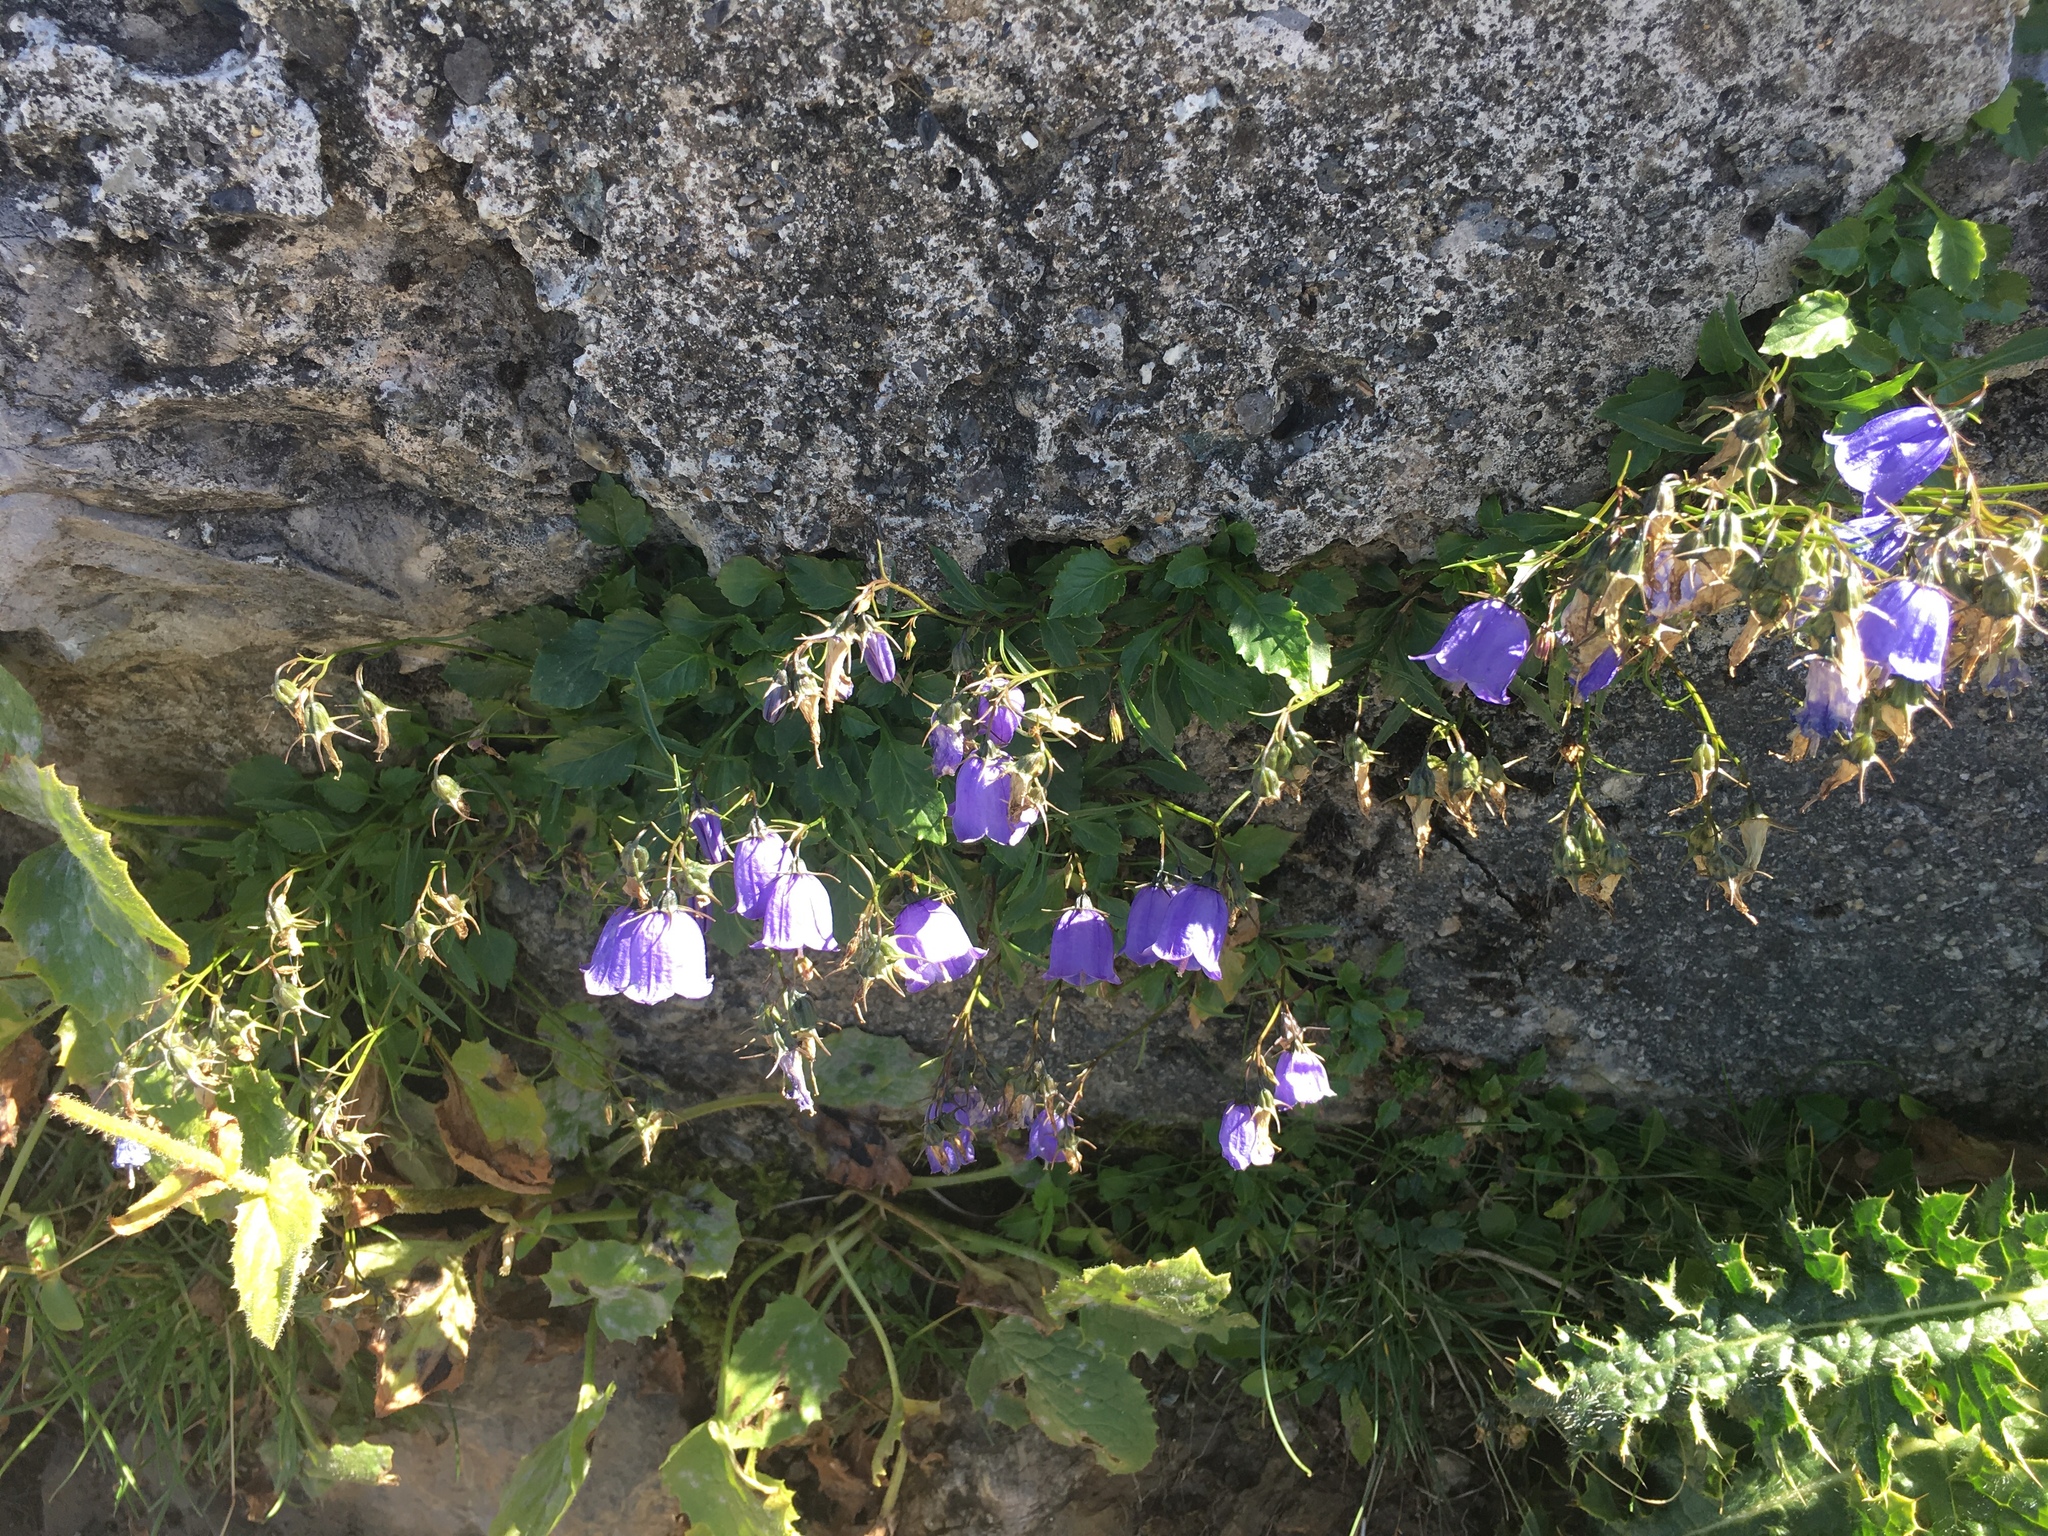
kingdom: Plantae
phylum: Tracheophyta
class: Magnoliopsida
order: Asterales
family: Campanulaceae
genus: Campanula
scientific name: Campanula rotundifolia
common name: Harebell
